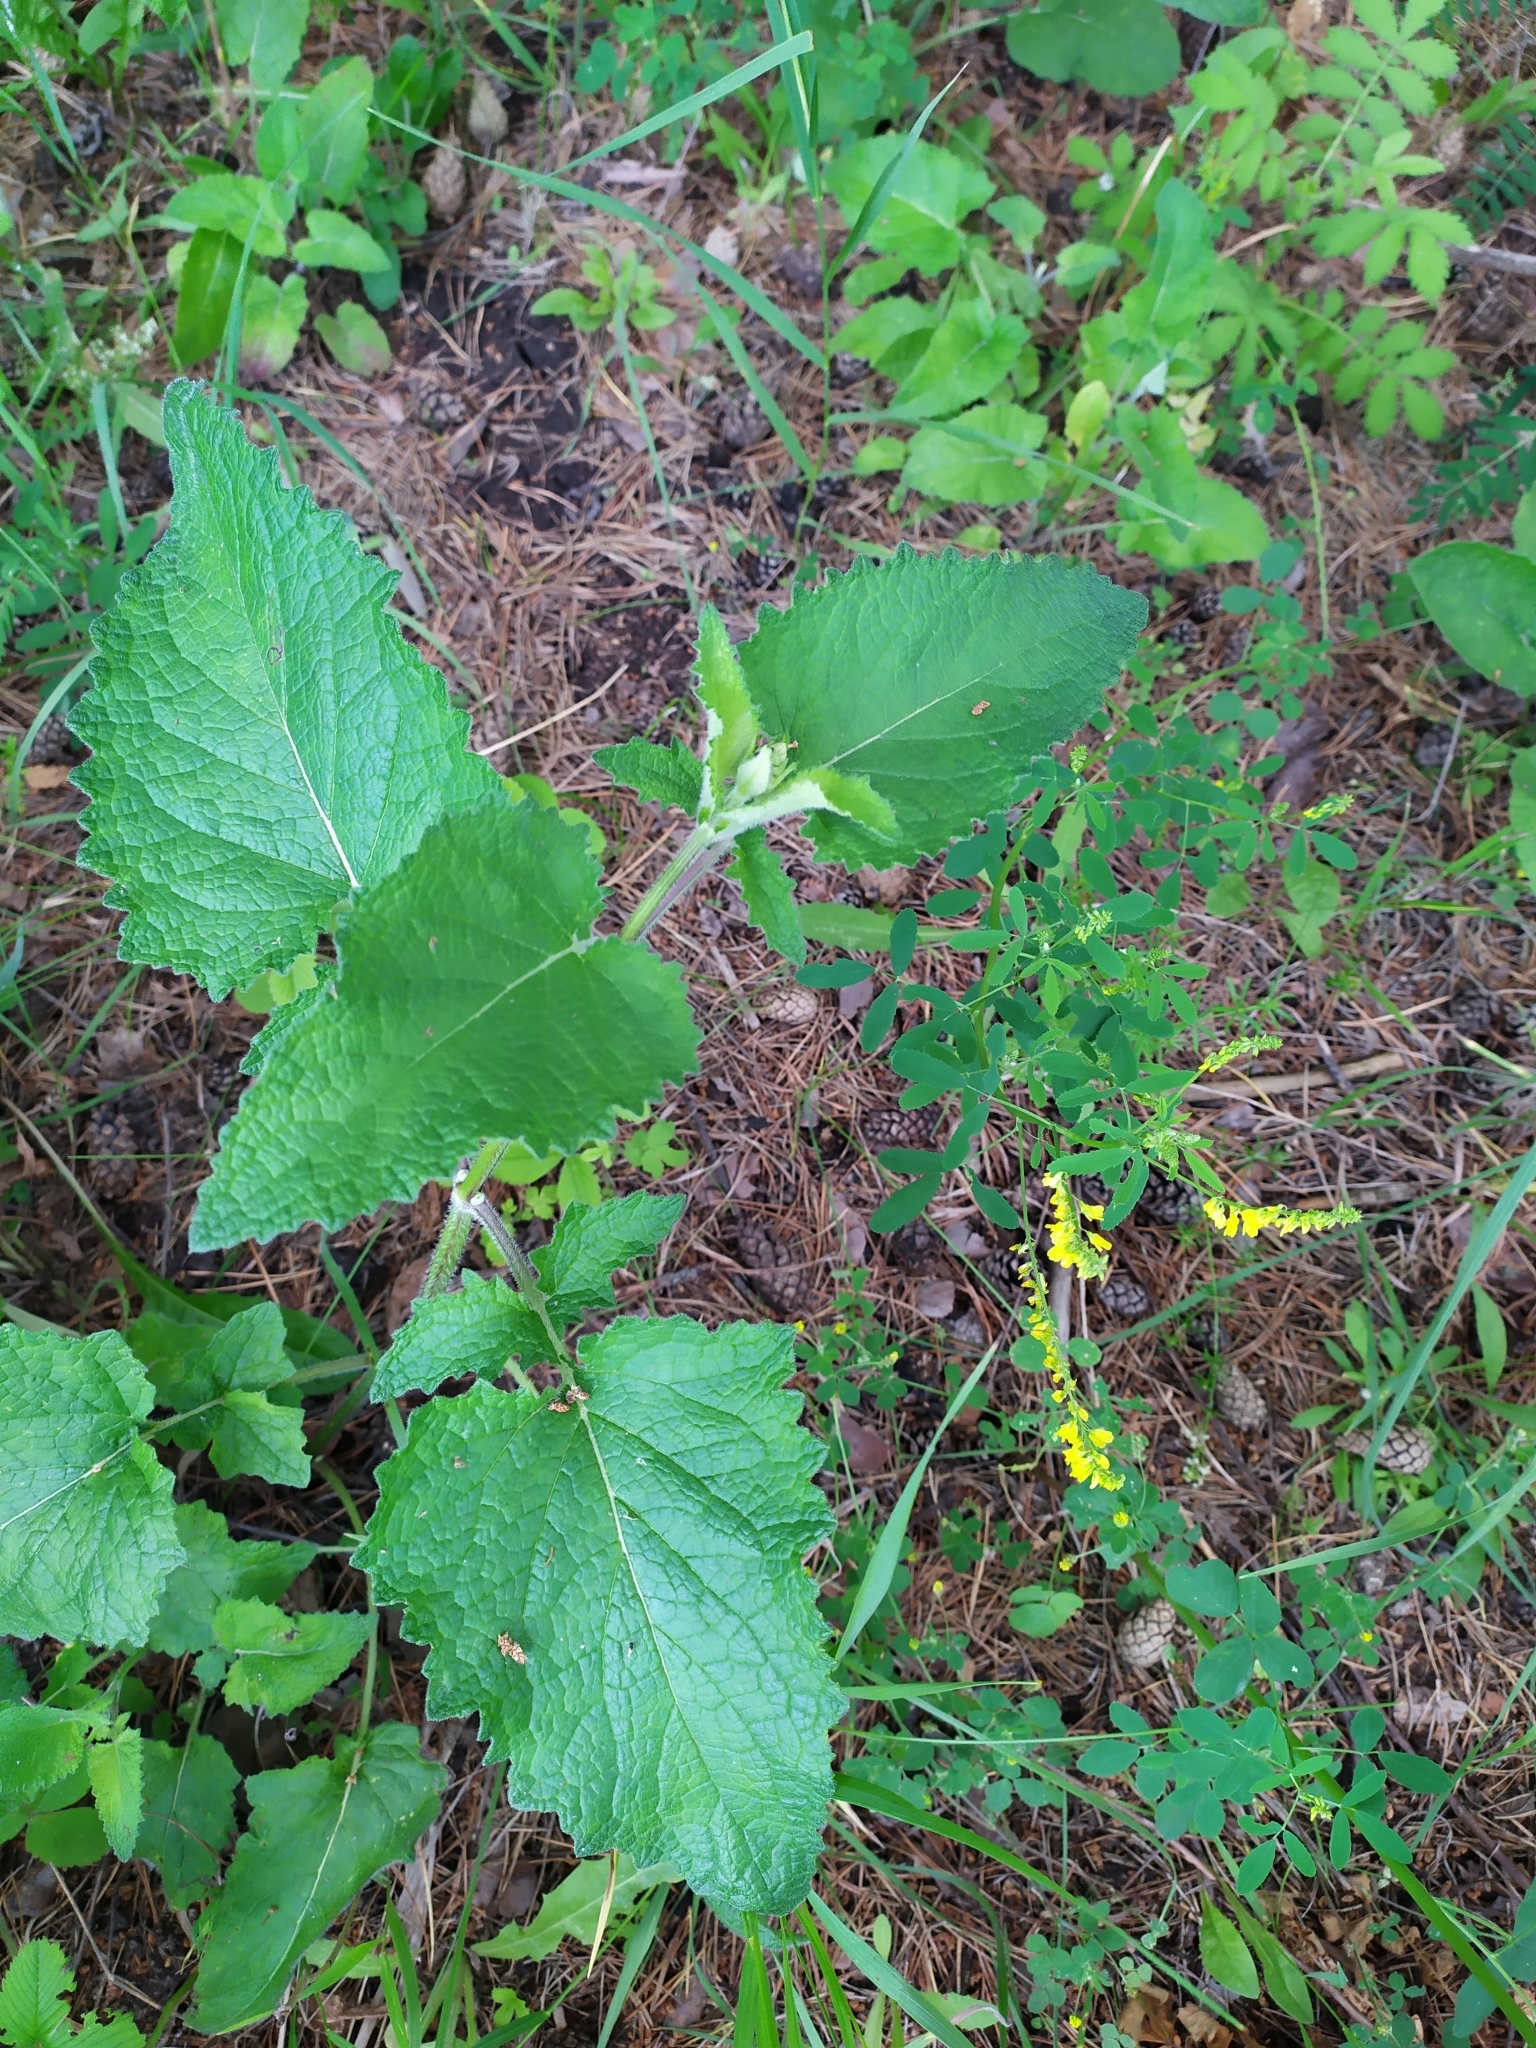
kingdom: Plantae
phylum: Tracheophyta
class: Magnoliopsida
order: Lamiales
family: Lamiaceae
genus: Salvia
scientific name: Salvia verticillata
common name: Whorled clary
